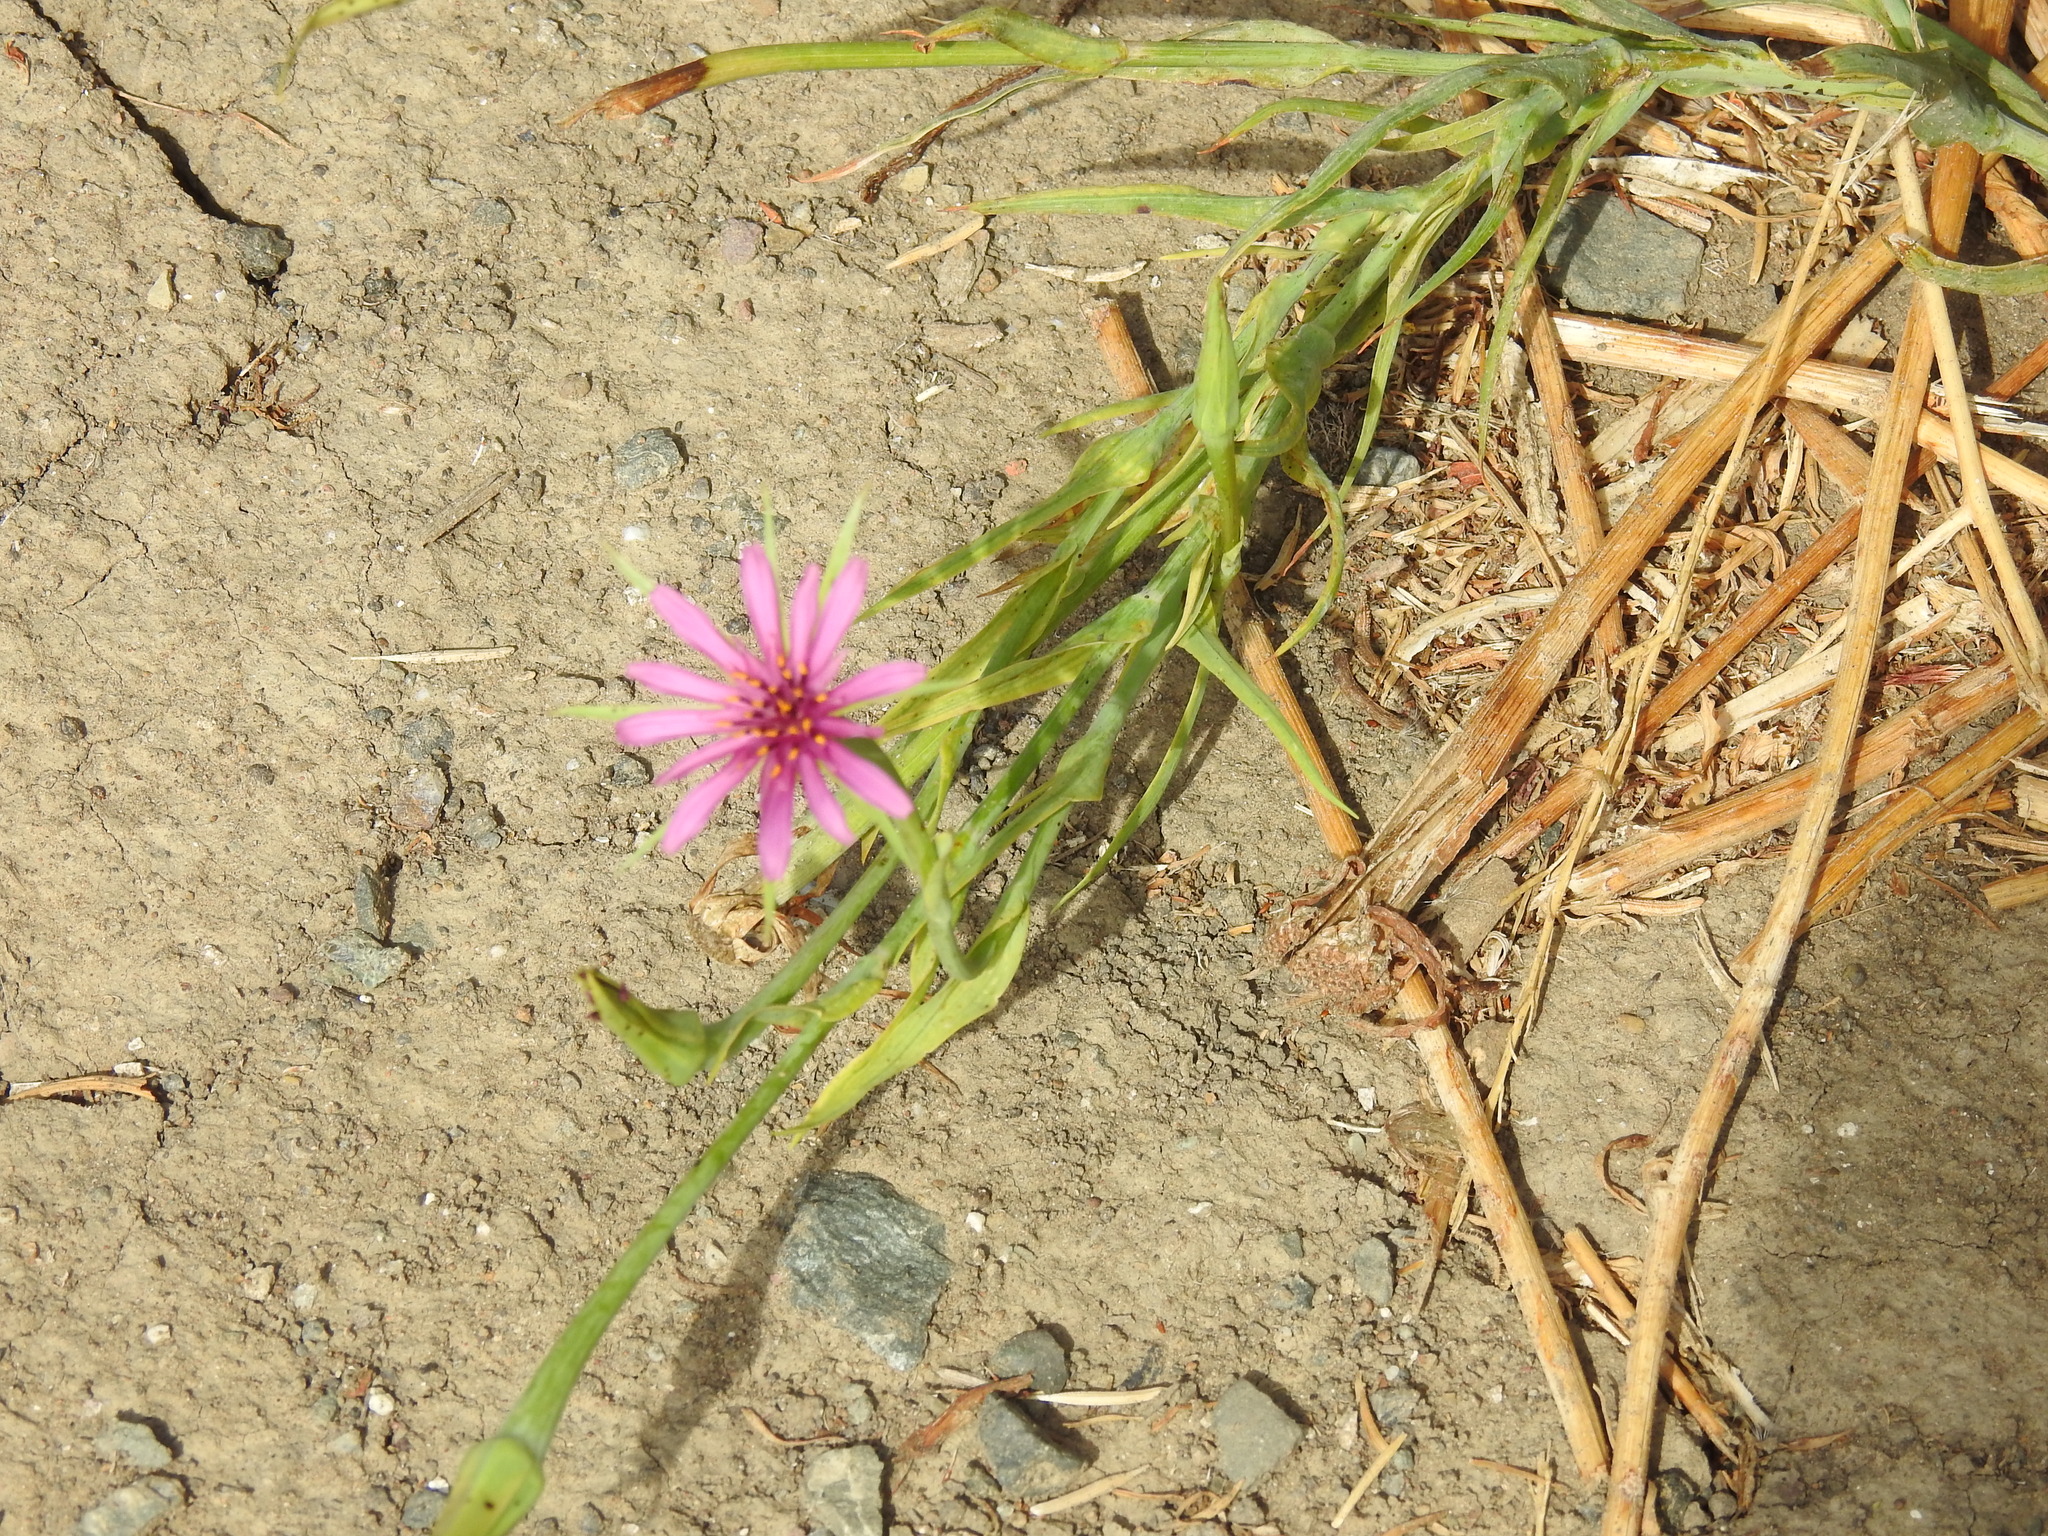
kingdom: Plantae
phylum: Tracheophyta
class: Magnoliopsida
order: Asterales
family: Asteraceae
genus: Tragopogon
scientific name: Tragopogon porrifolius
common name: Salsify
